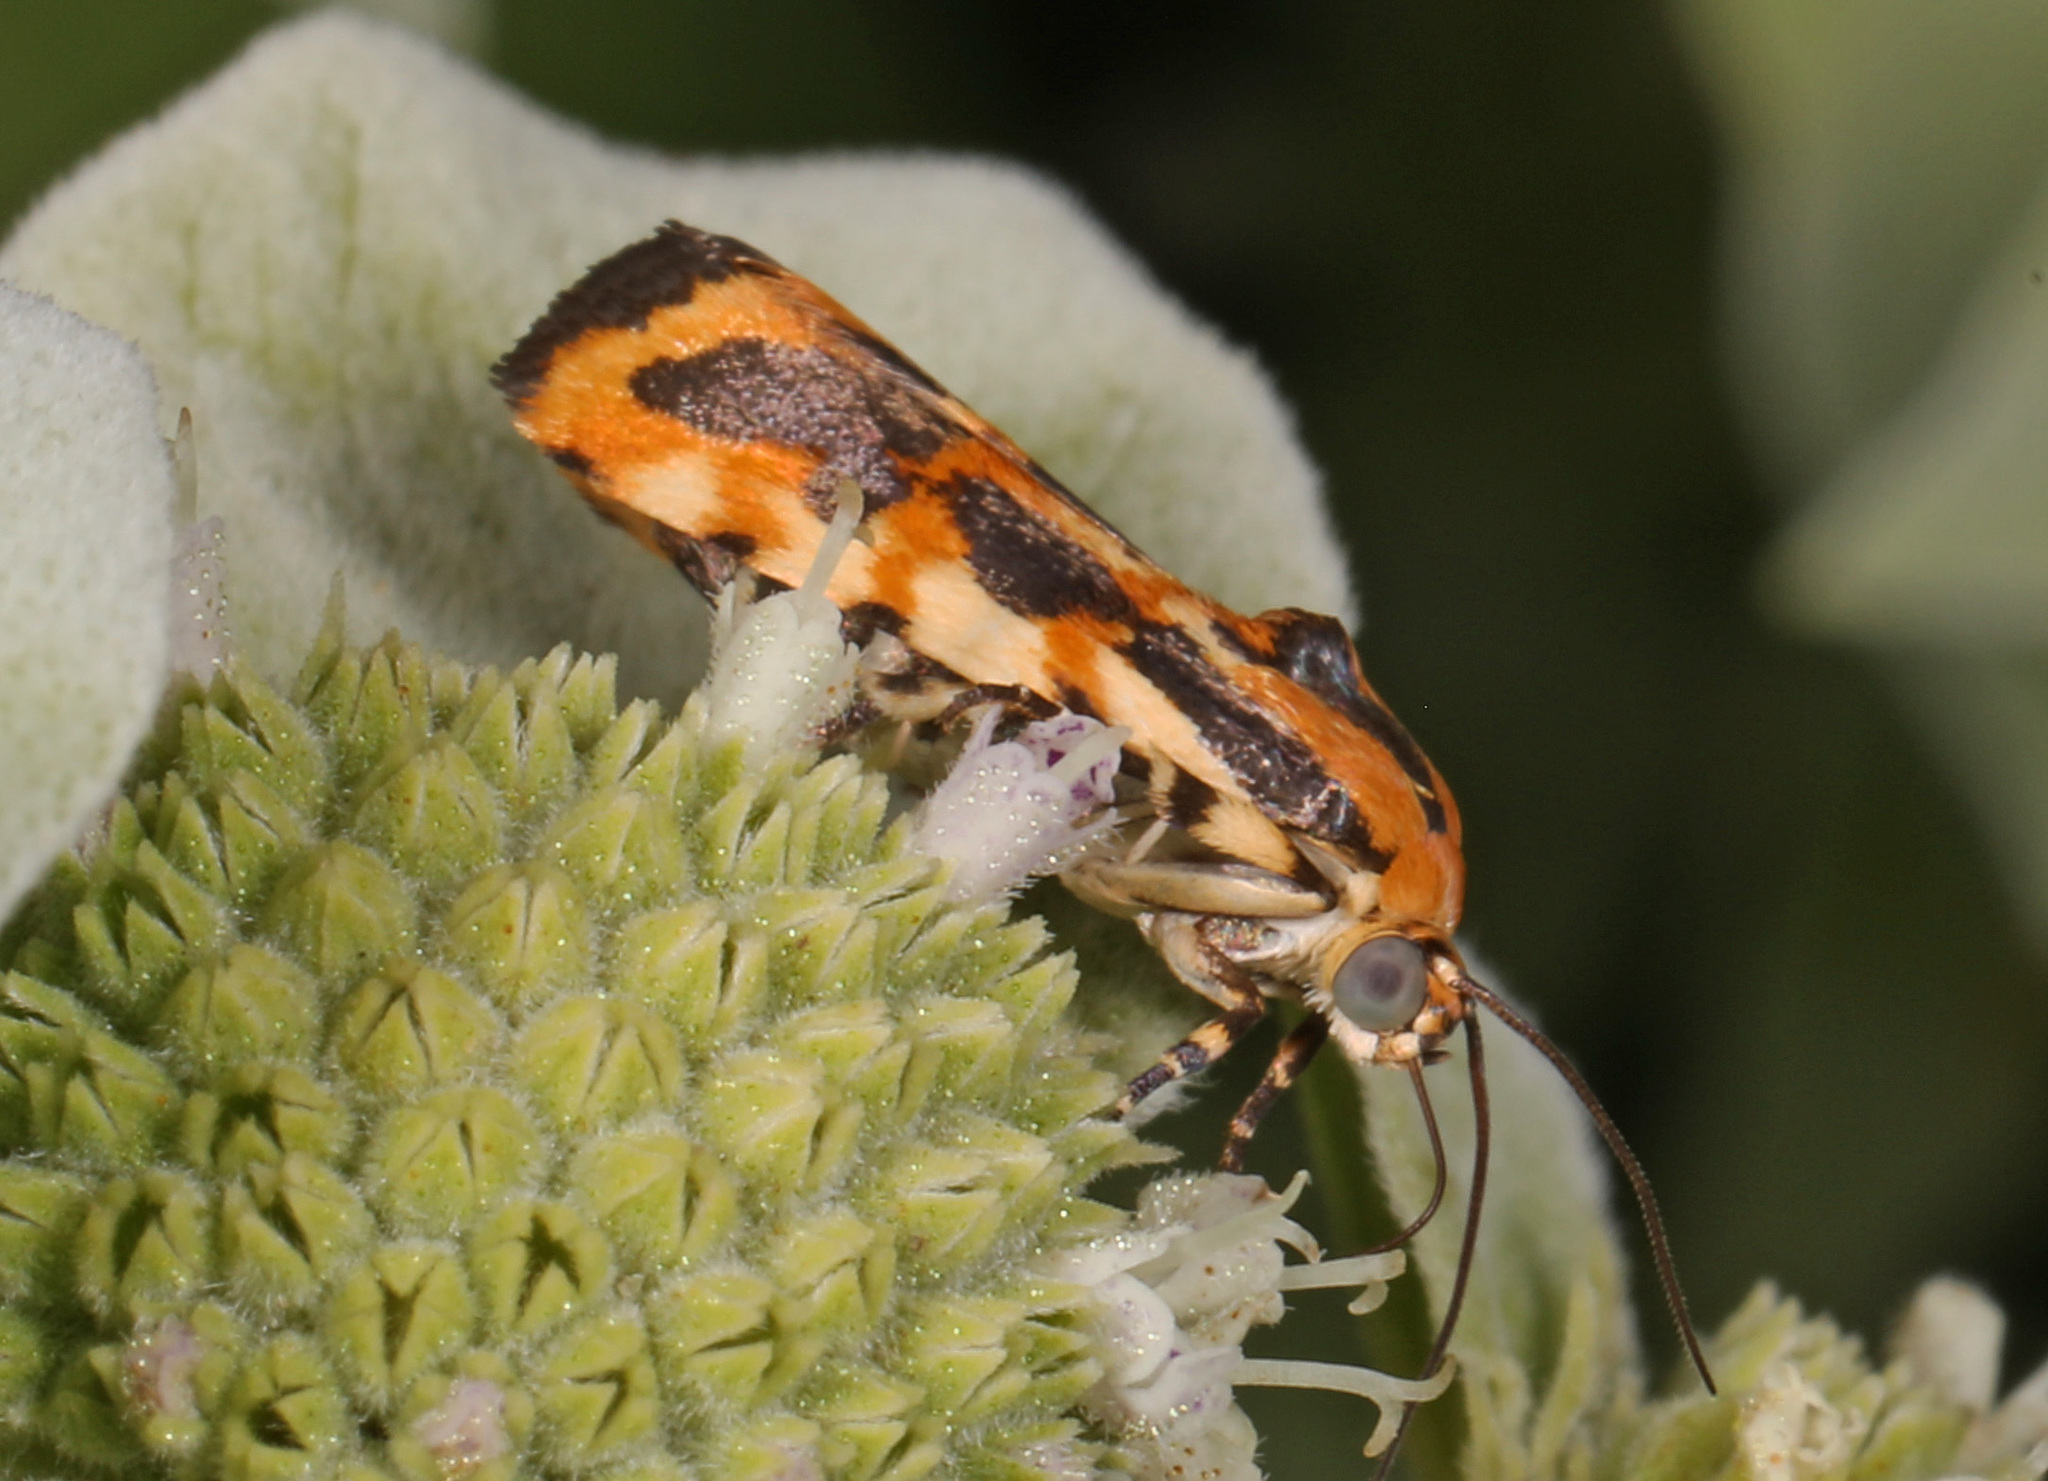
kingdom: Animalia
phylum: Arthropoda
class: Insecta
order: Lepidoptera
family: Noctuidae
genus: Acontia
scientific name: Acontia leo
